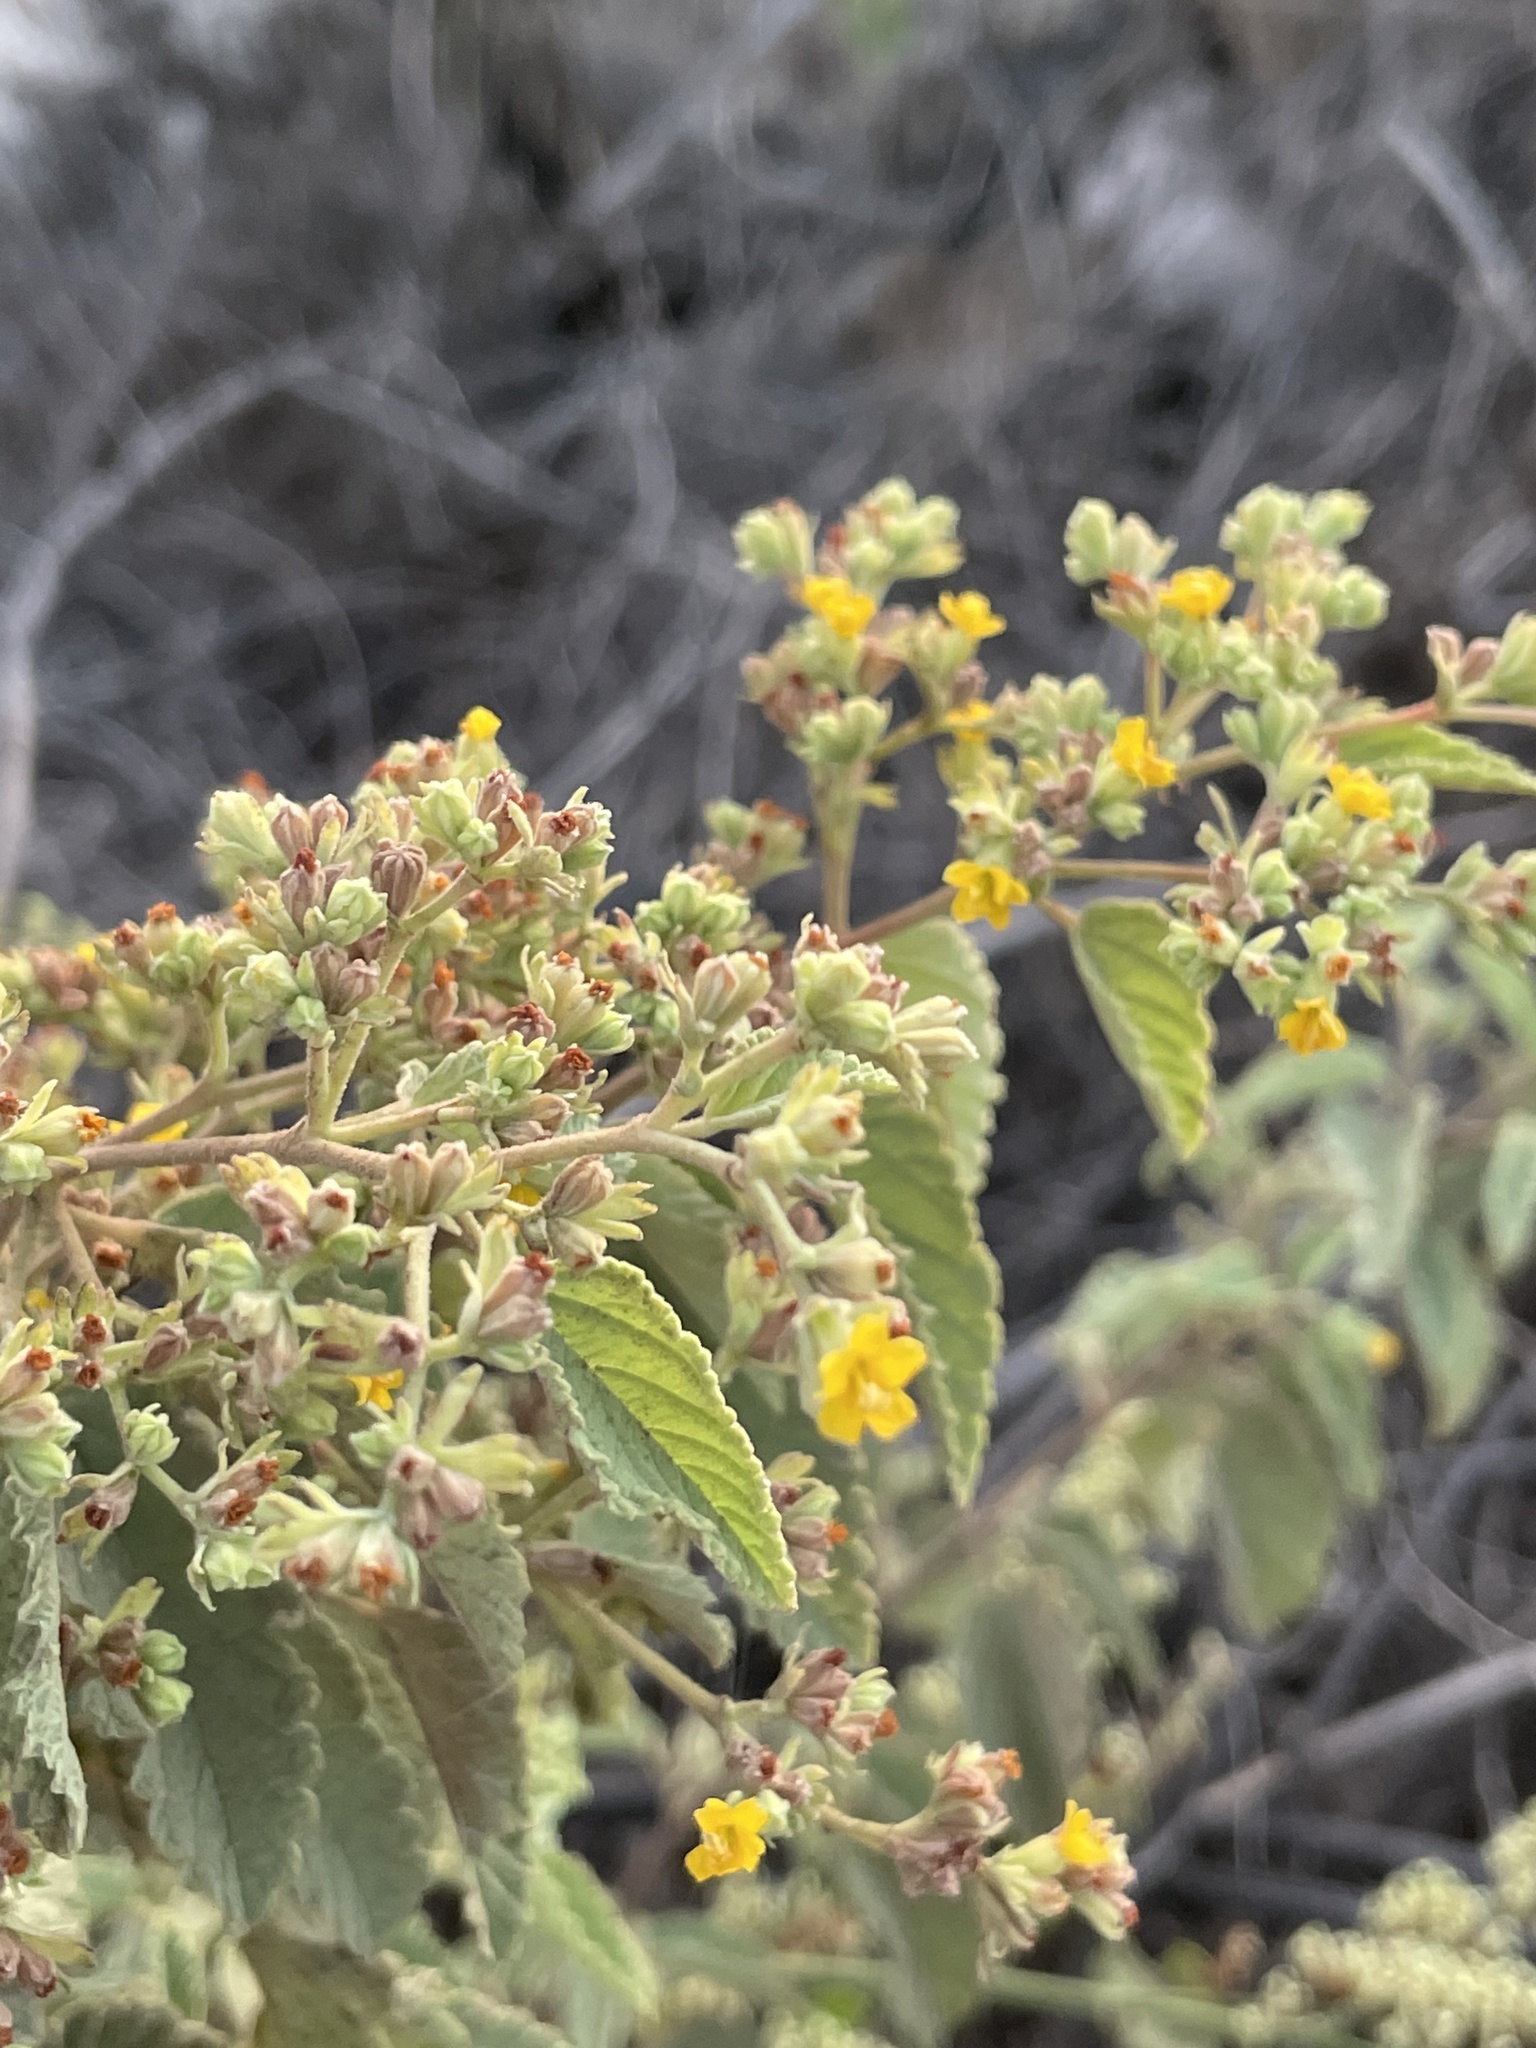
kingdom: Plantae
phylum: Tracheophyta
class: Magnoliopsida
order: Malvales
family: Malvaceae
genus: Waltheria
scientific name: Waltheria ovata
